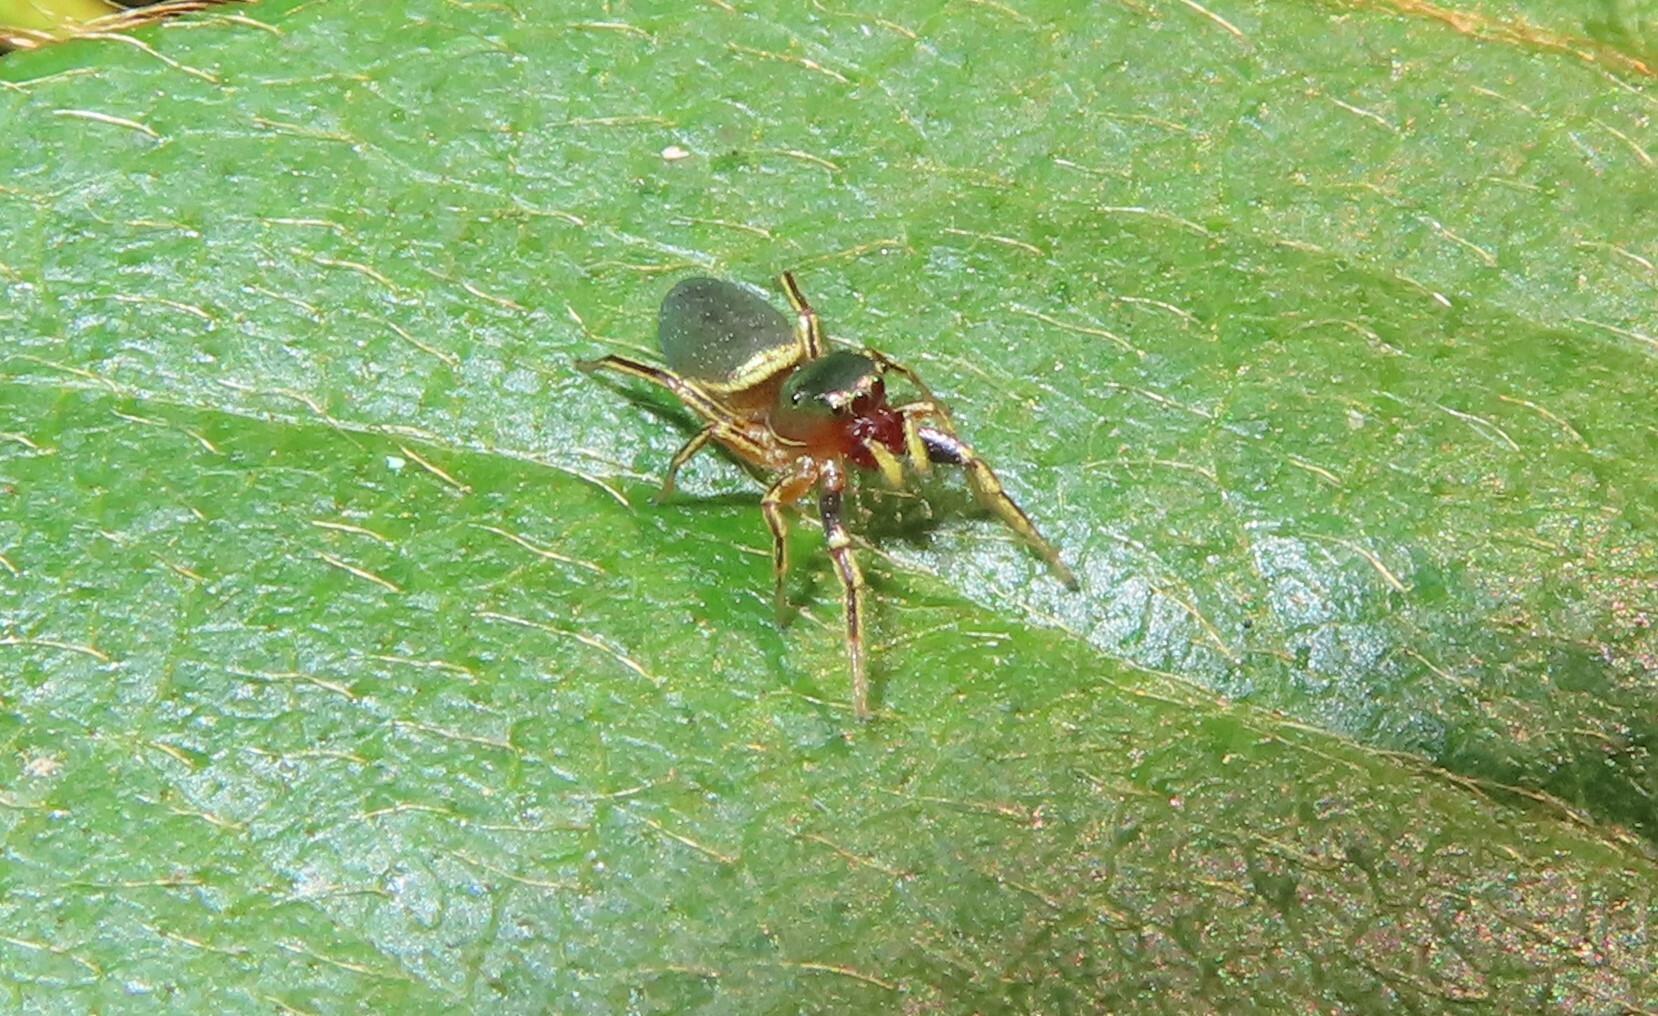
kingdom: Animalia
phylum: Arthropoda
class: Arachnida
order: Araneae
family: Salticidae
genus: Tutelina
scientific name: Tutelina elegans
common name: Thin-spined jumping spider
